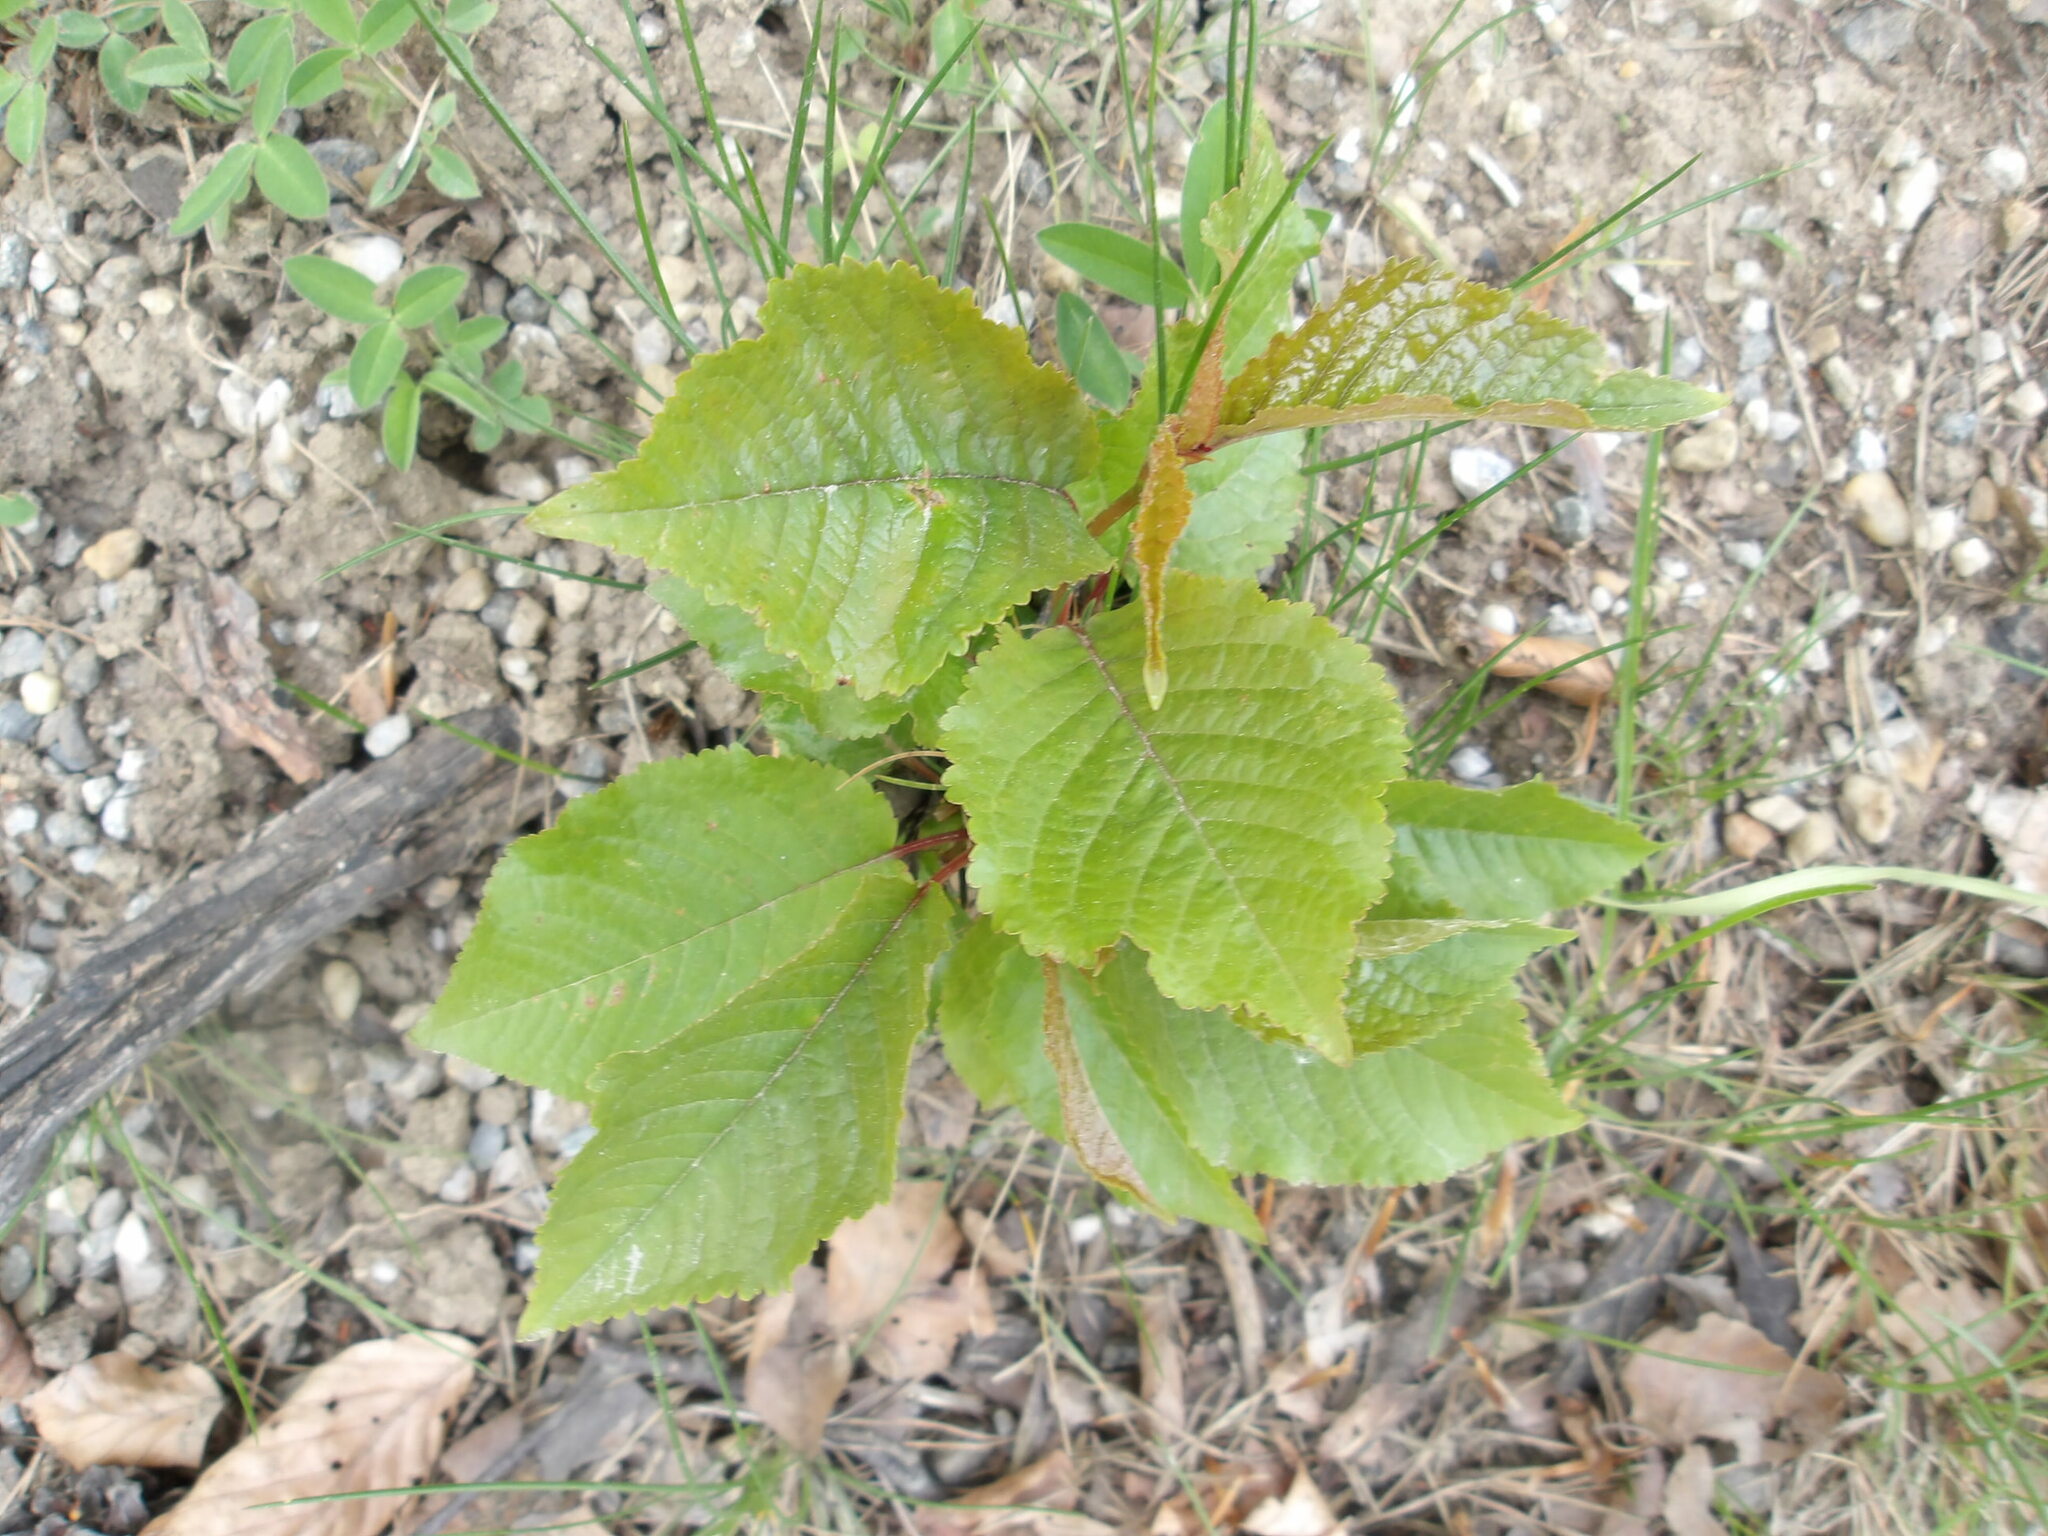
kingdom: Plantae
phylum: Tracheophyta
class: Magnoliopsida
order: Rosales
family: Rosaceae
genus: Prunus
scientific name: Prunus avium
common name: Sweet cherry
